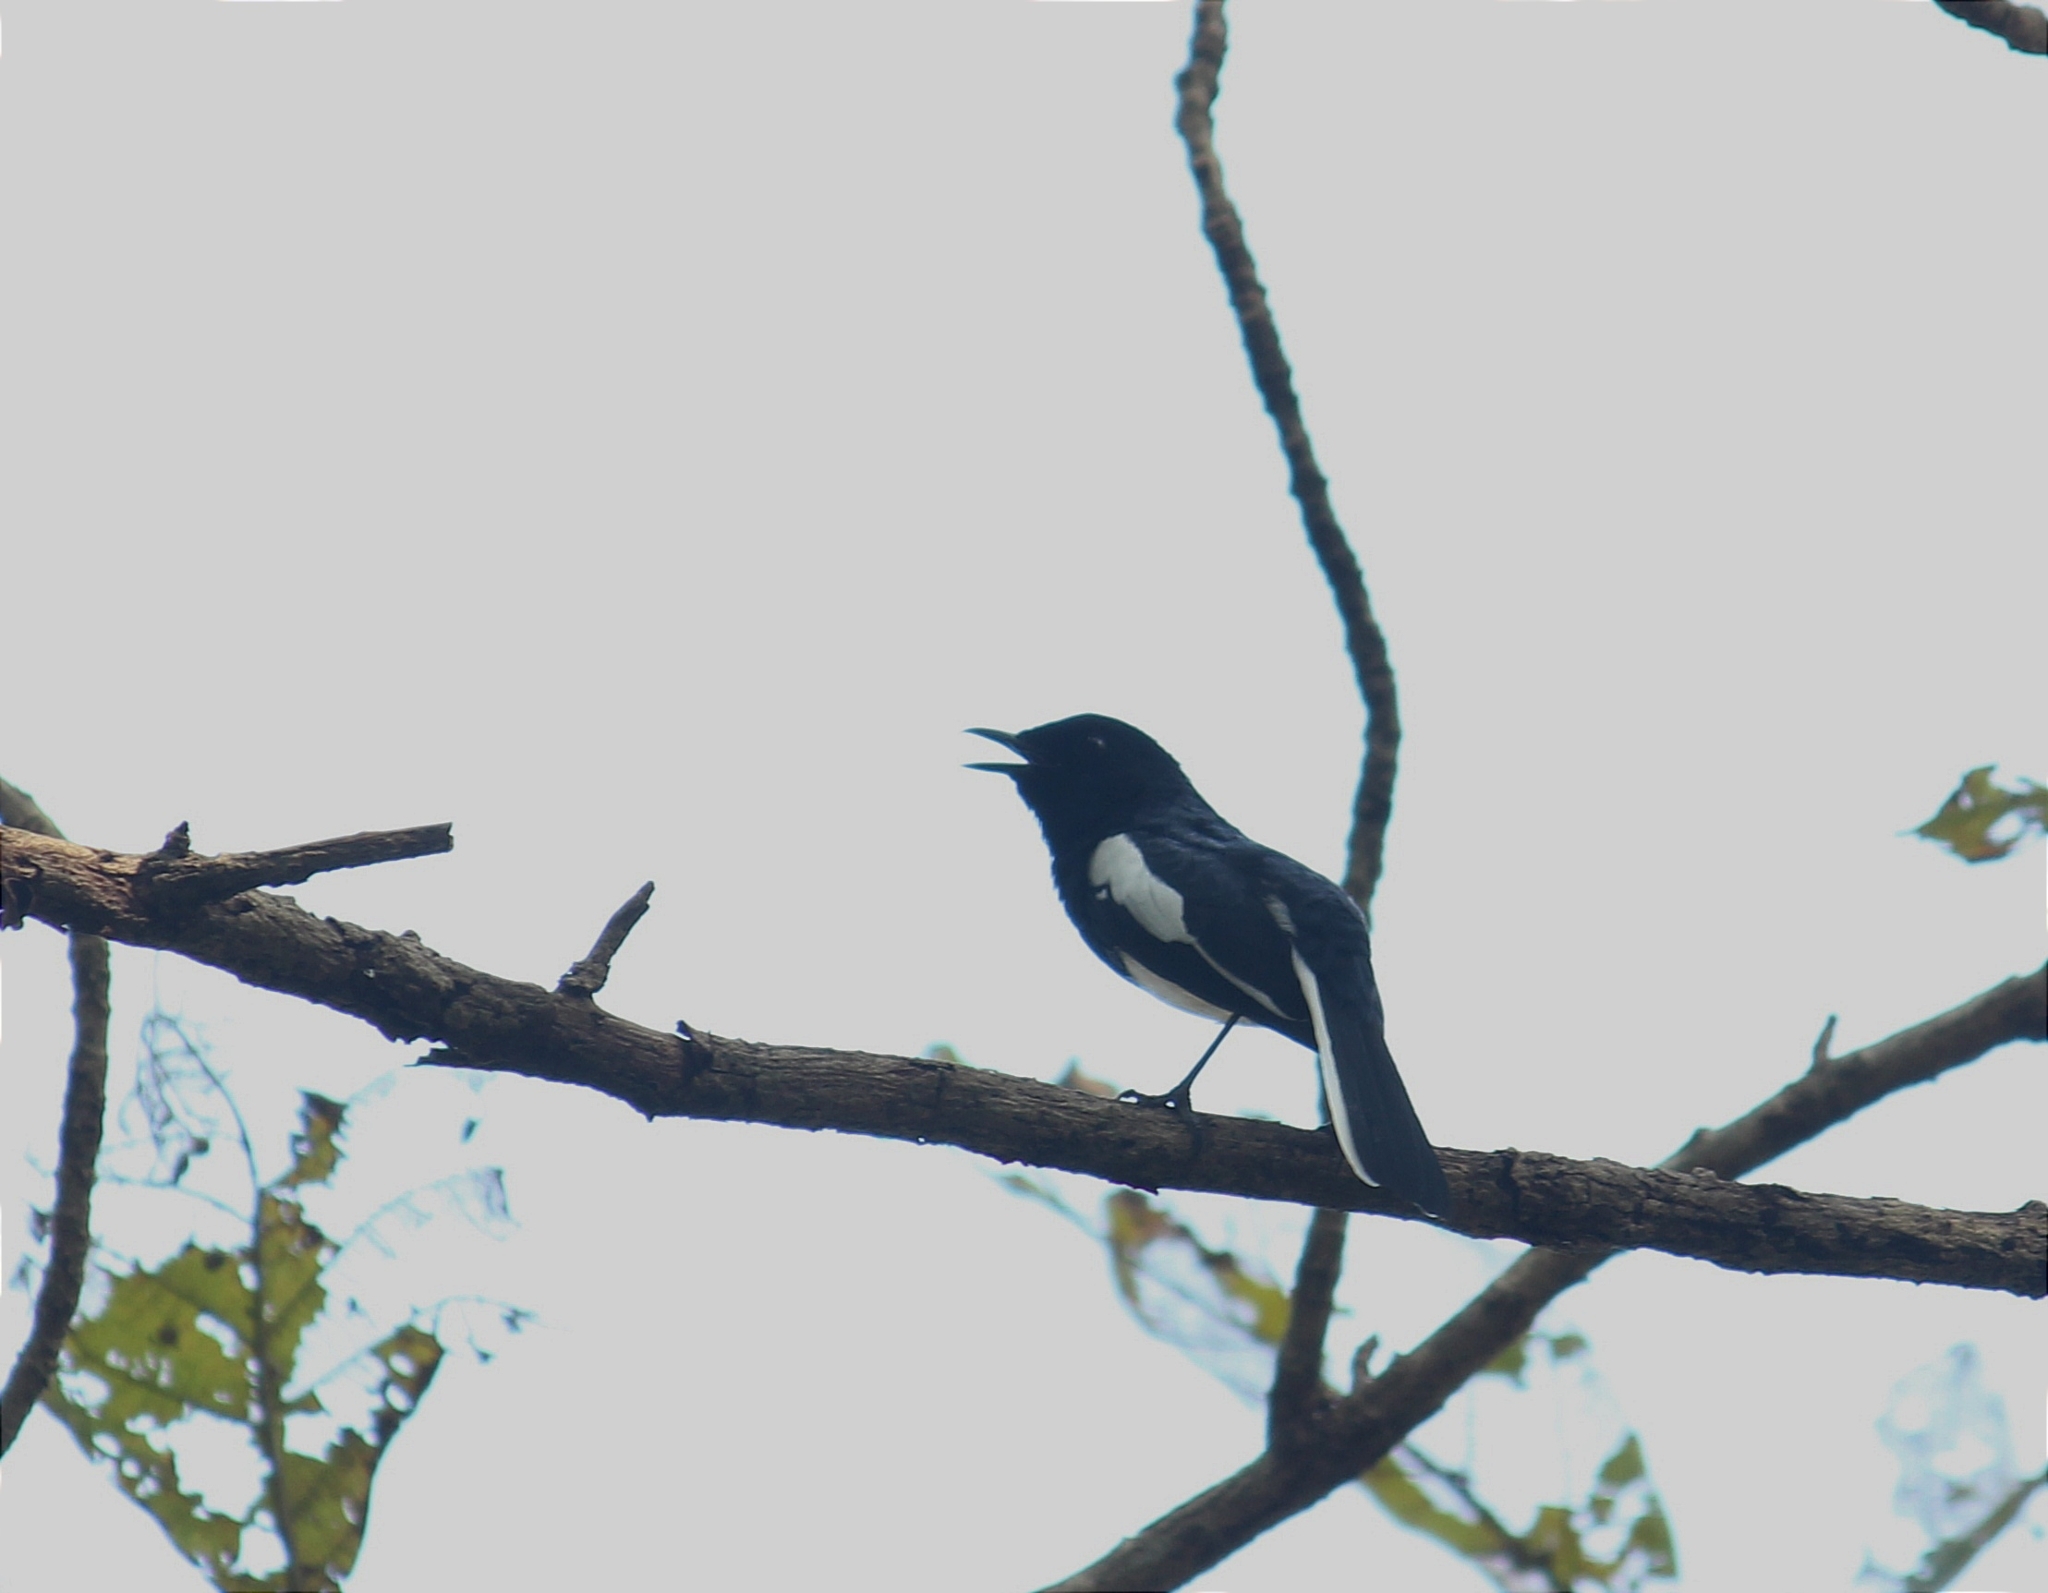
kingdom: Animalia
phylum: Chordata
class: Aves
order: Passeriformes
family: Muscicapidae
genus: Copsychus
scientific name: Copsychus saularis
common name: Oriental magpie-robin
